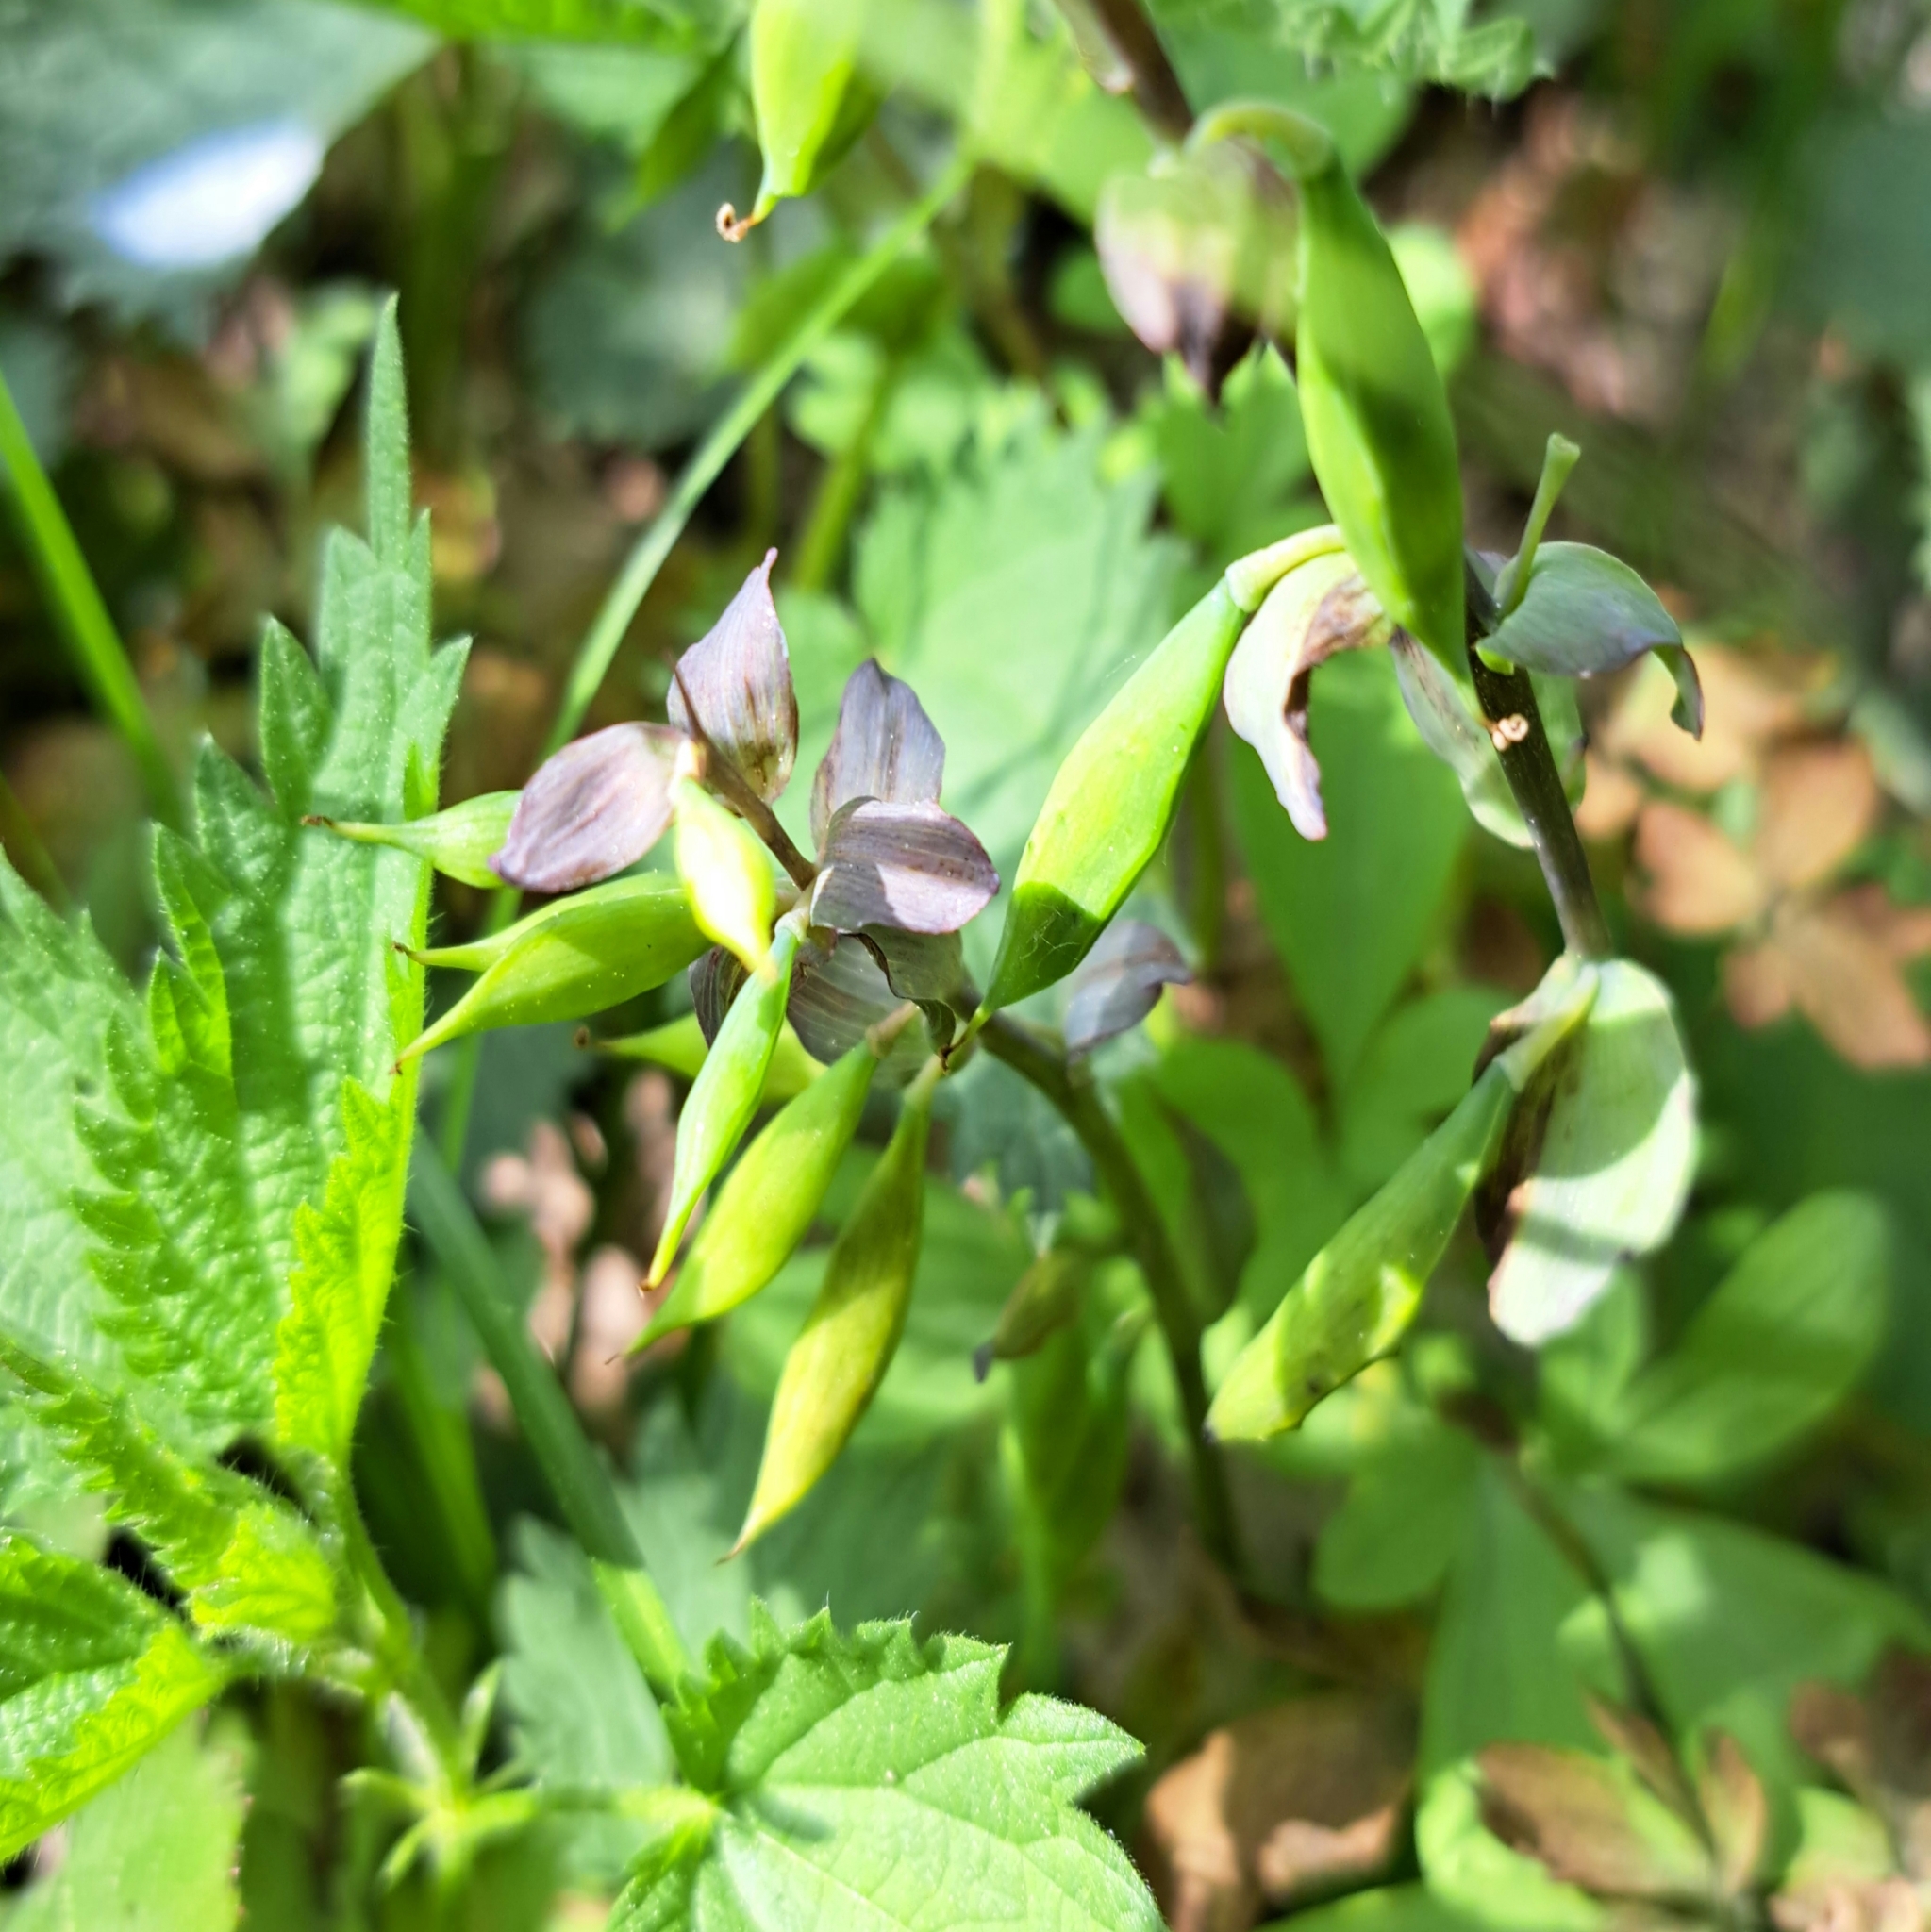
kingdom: Plantae
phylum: Tracheophyta
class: Magnoliopsida
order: Ranunculales
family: Papaveraceae
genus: Corydalis
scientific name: Corydalis cava
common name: Hollowroot
